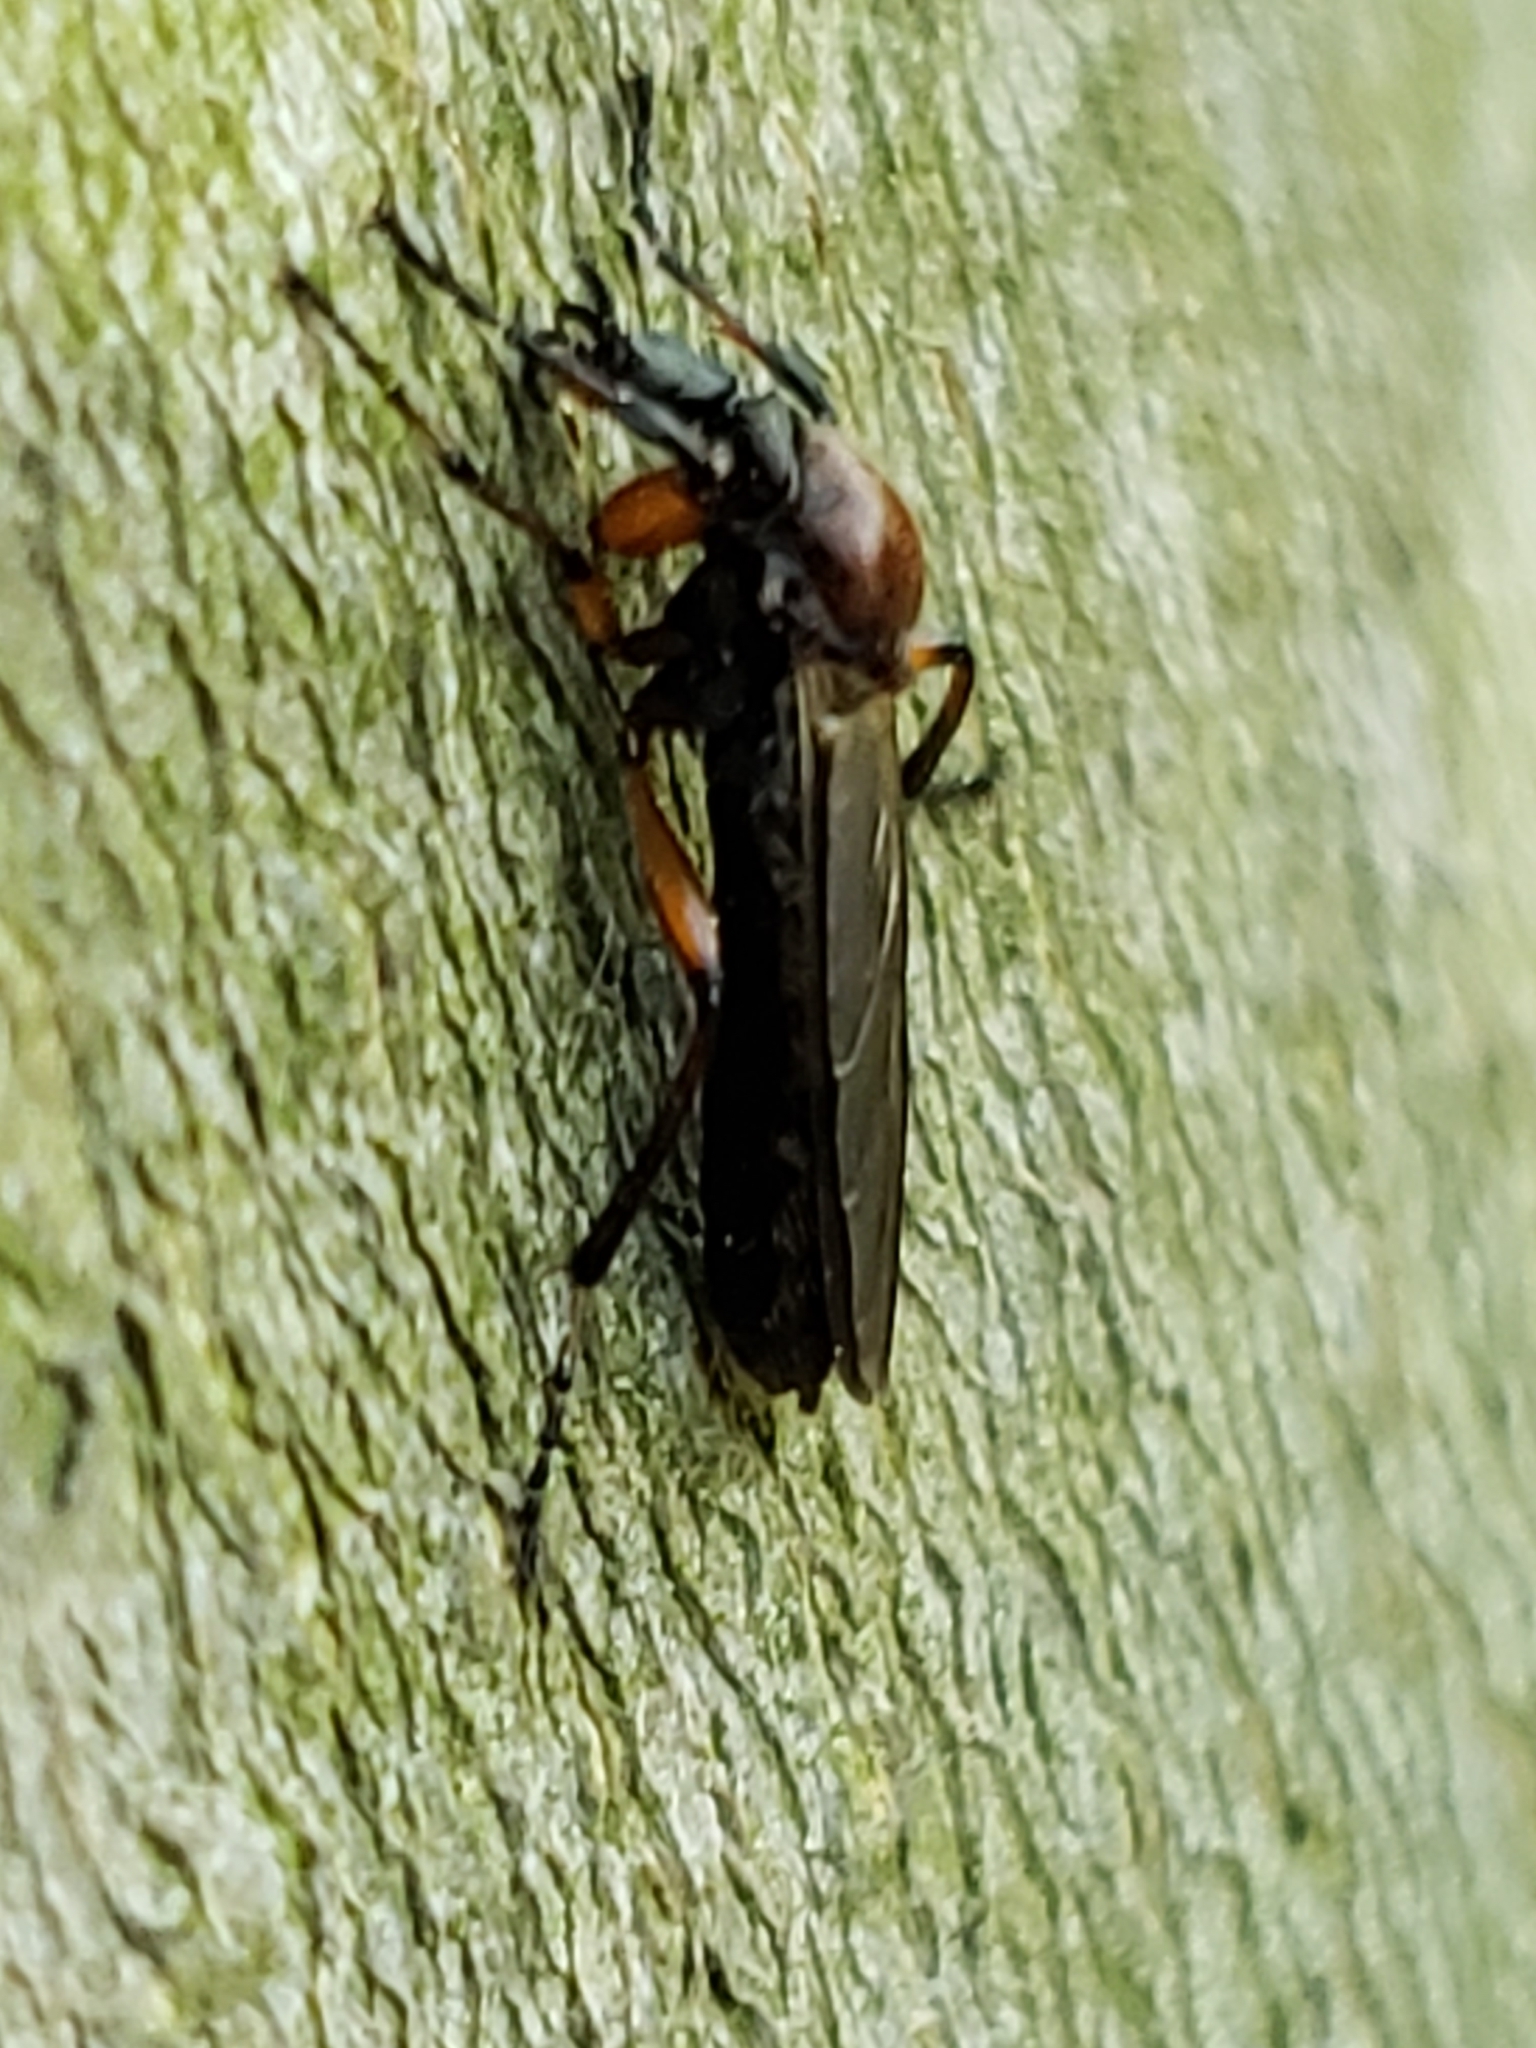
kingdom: Animalia
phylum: Arthropoda
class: Insecta
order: Diptera
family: Bibionidae
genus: Bibio
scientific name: Bibio articulatus
